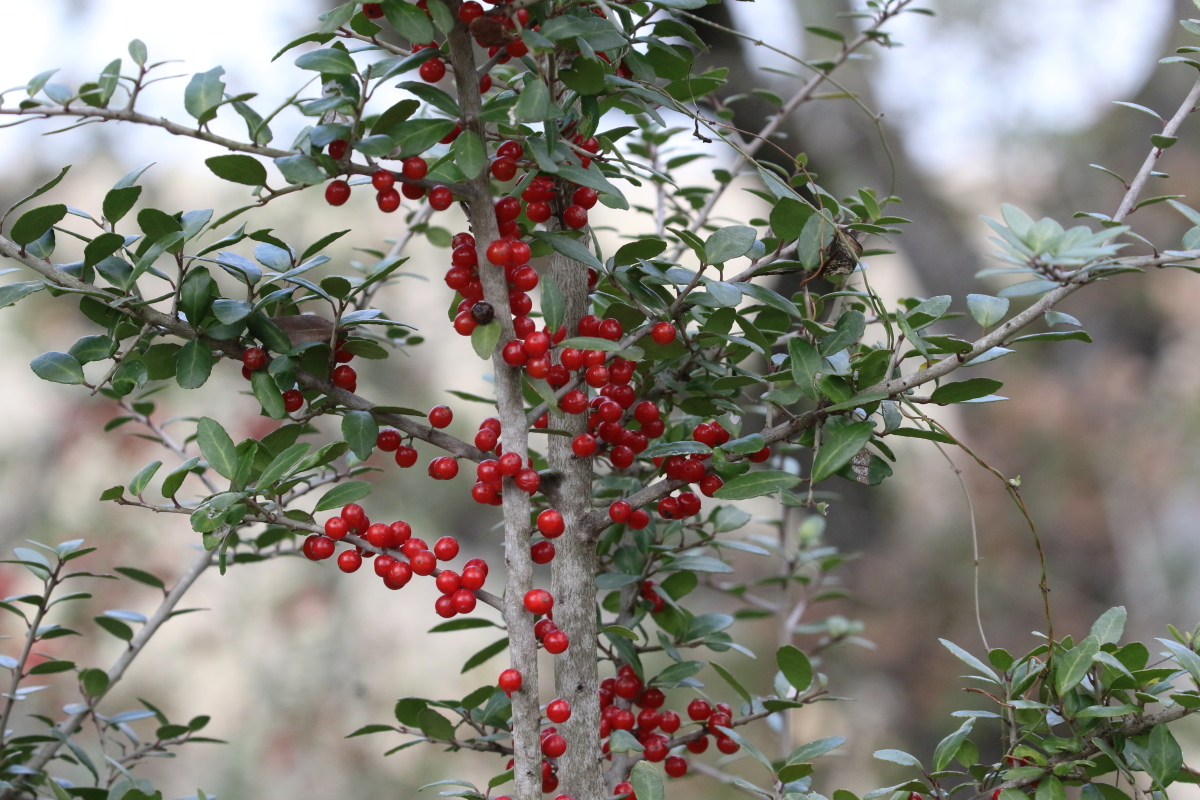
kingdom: Plantae
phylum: Tracheophyta
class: Magnoliopsida
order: Aquifoliales
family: Aquifoliaceae
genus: Ilex
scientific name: Ilex vomitoria
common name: Yaupon holly
